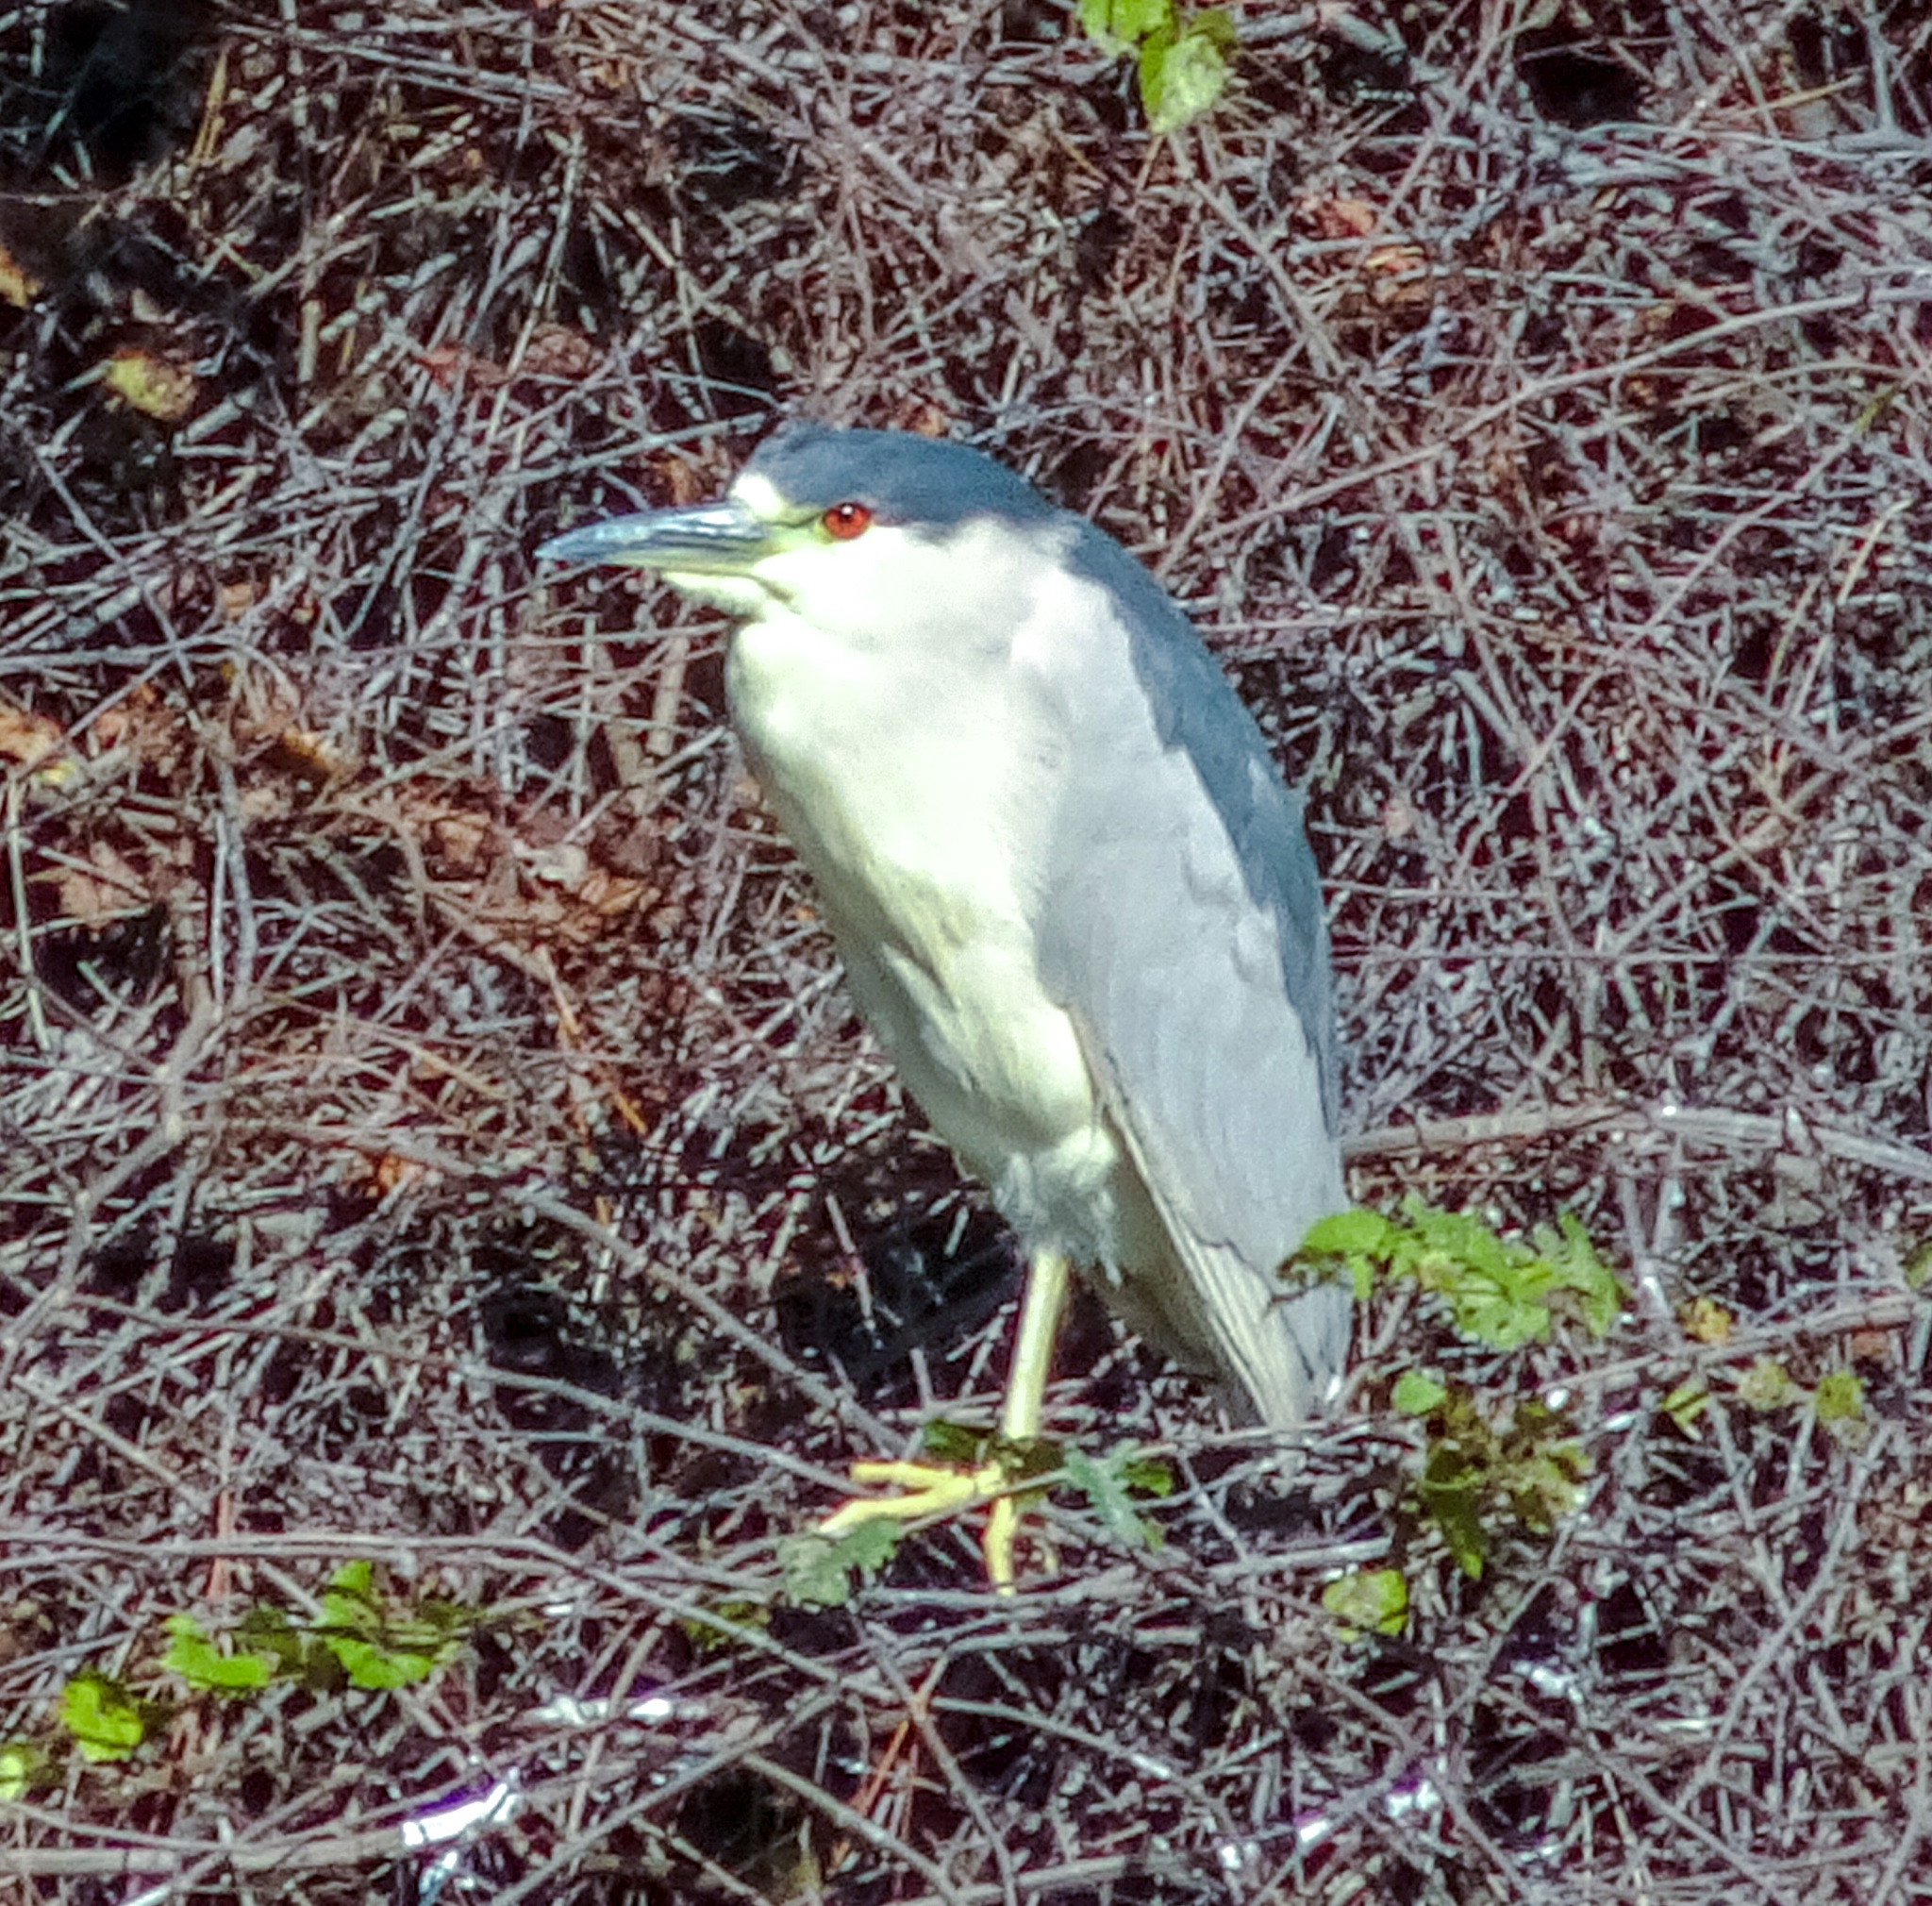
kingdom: Animalia
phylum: Chordata
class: Aves
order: Pelecaniformes
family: Ardeidae
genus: Nycticorax
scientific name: Nycticorax nycticorax
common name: Black-crowned night heron
